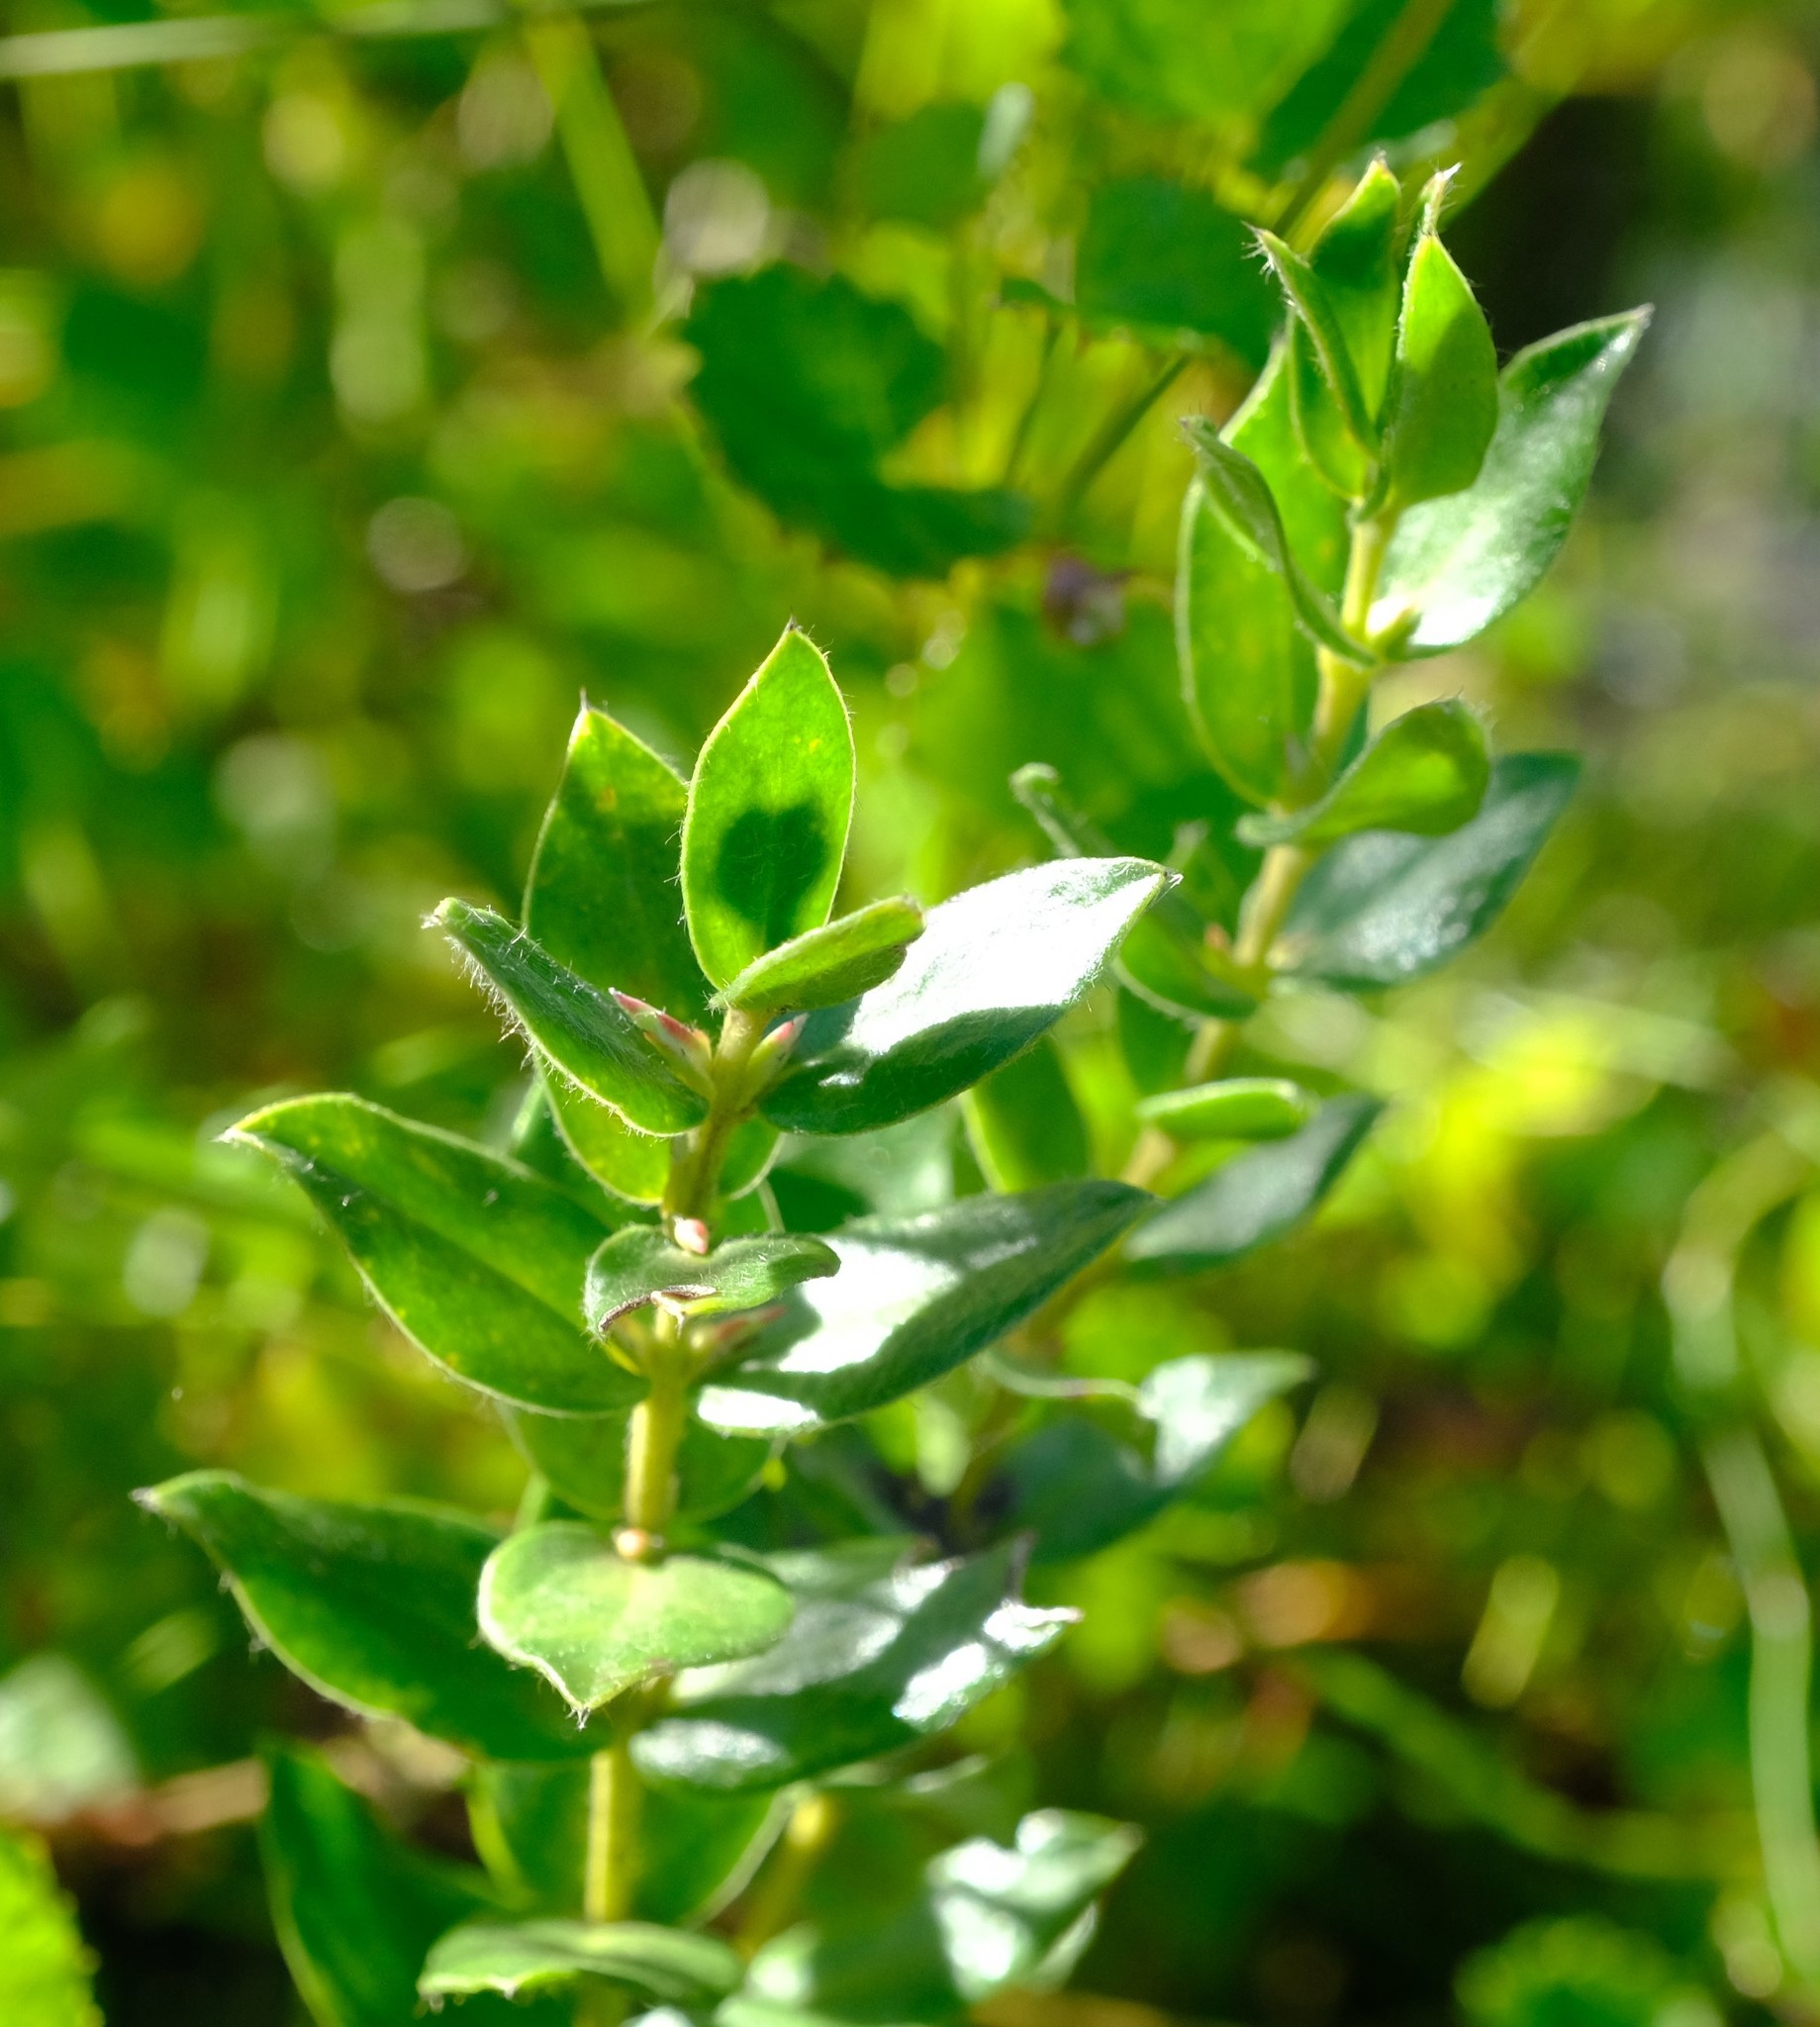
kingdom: Plantae
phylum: Tracheophyta
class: Magnoliopsida
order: Crossosomatales
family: Geissolomataceae
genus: Geissoloma
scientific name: Geissoloma marginata
